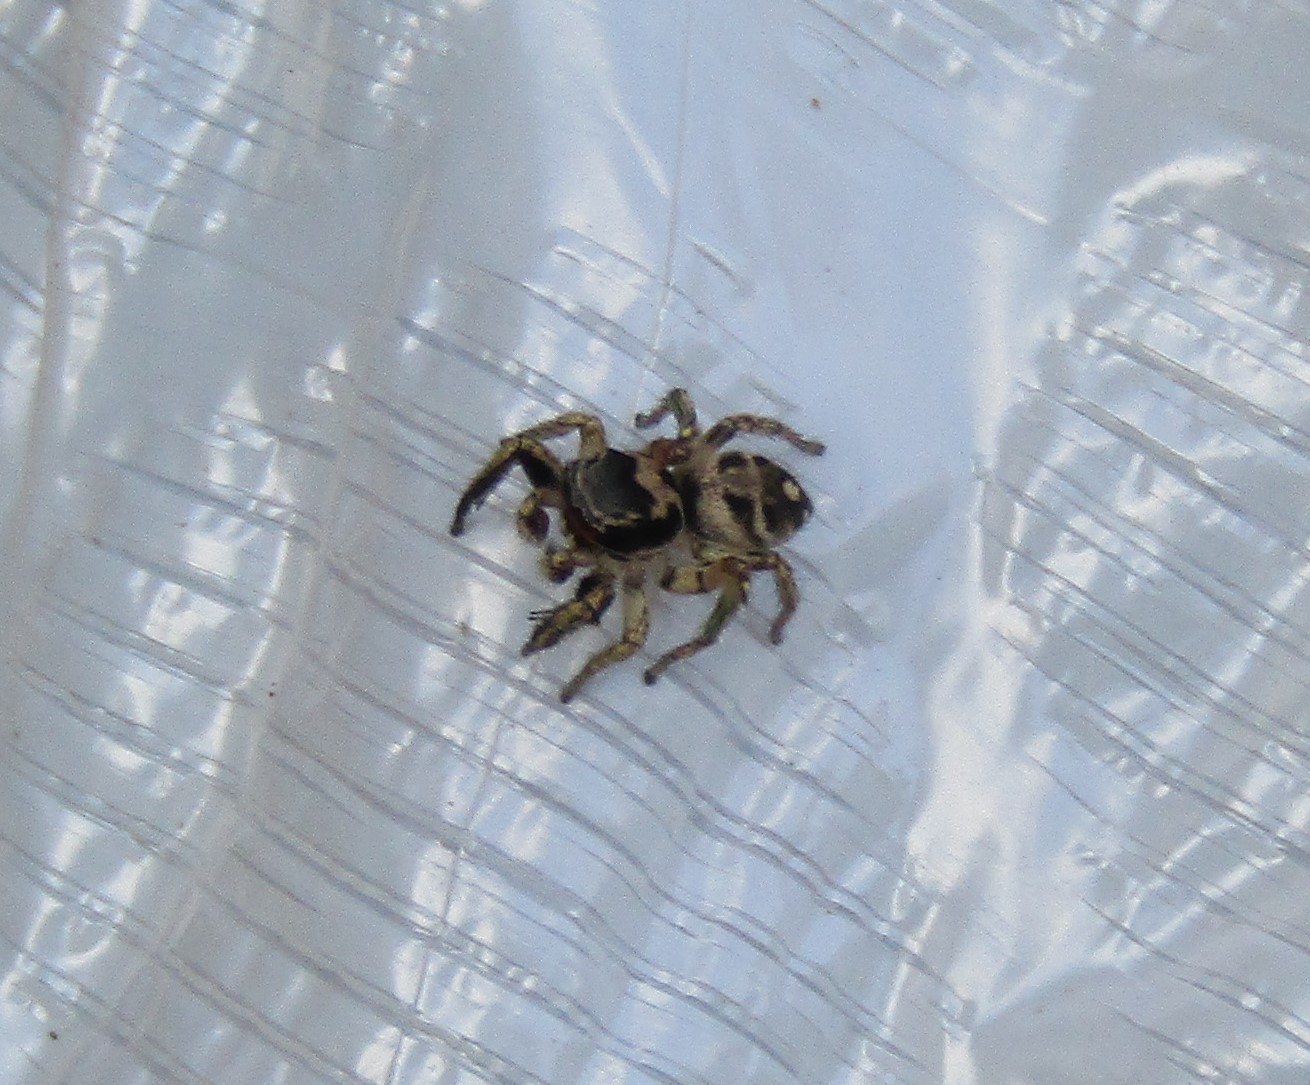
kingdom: Animalia
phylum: Arthropoda
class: Arachnida
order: Araneae
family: Salticidae
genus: Habronattus
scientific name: Habronattus coecatus
